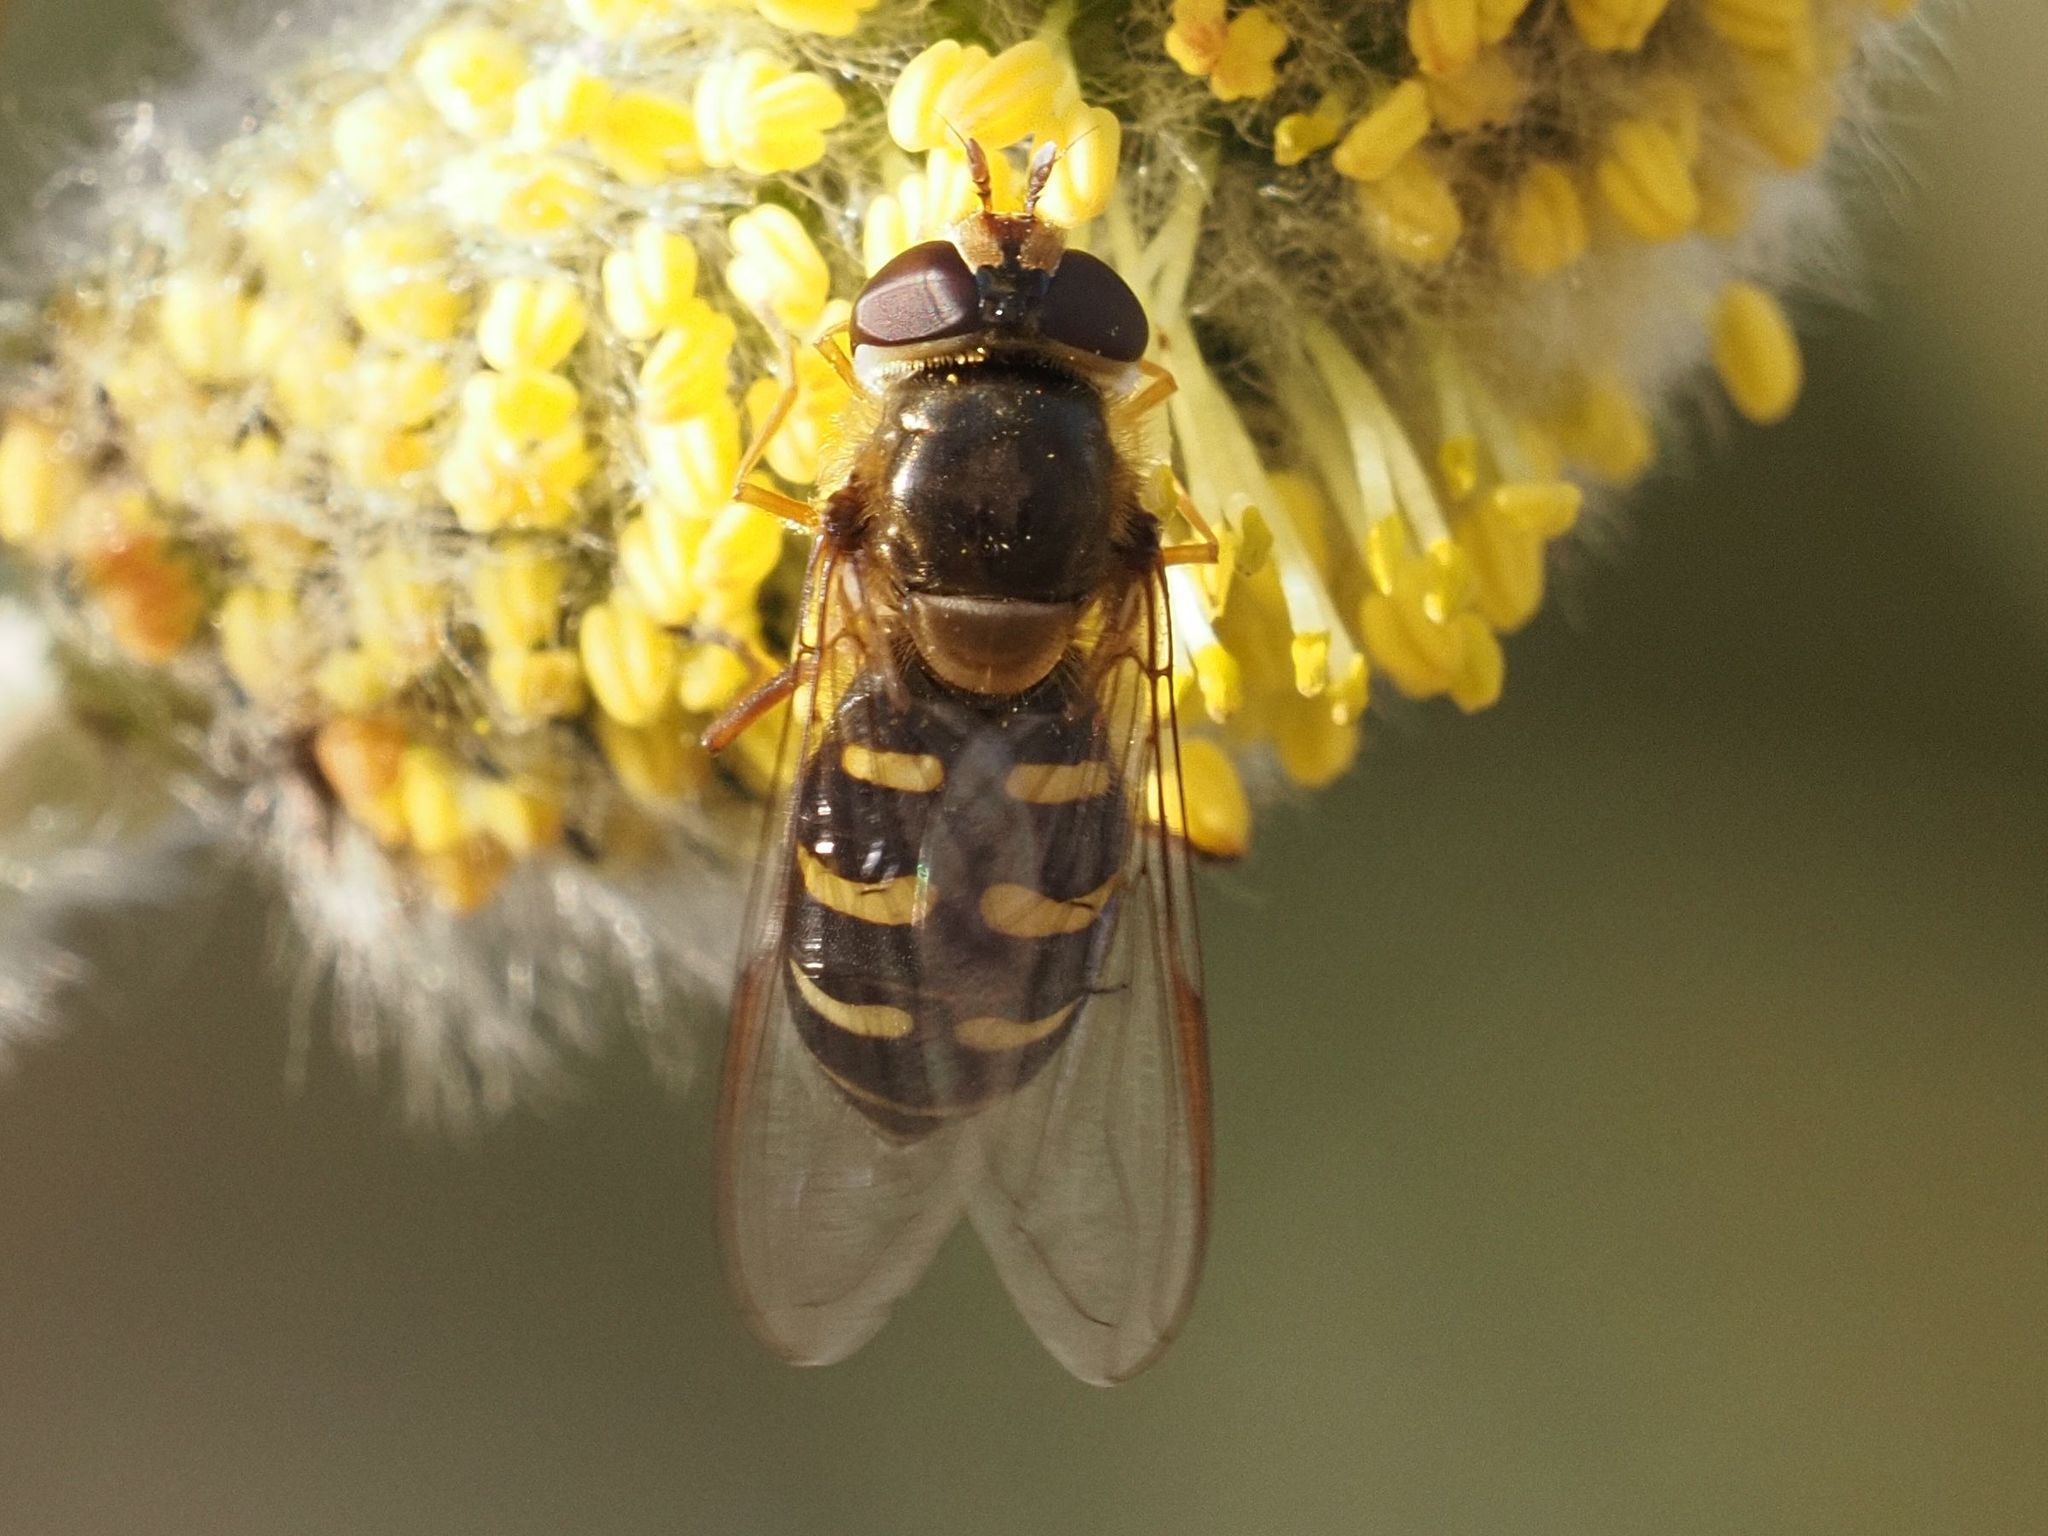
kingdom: Animalia
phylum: Arthropoda
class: Insecta
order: Diptera
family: Syrphidae
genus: Lapposyrphus
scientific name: Lapposyrphus lapponicus
